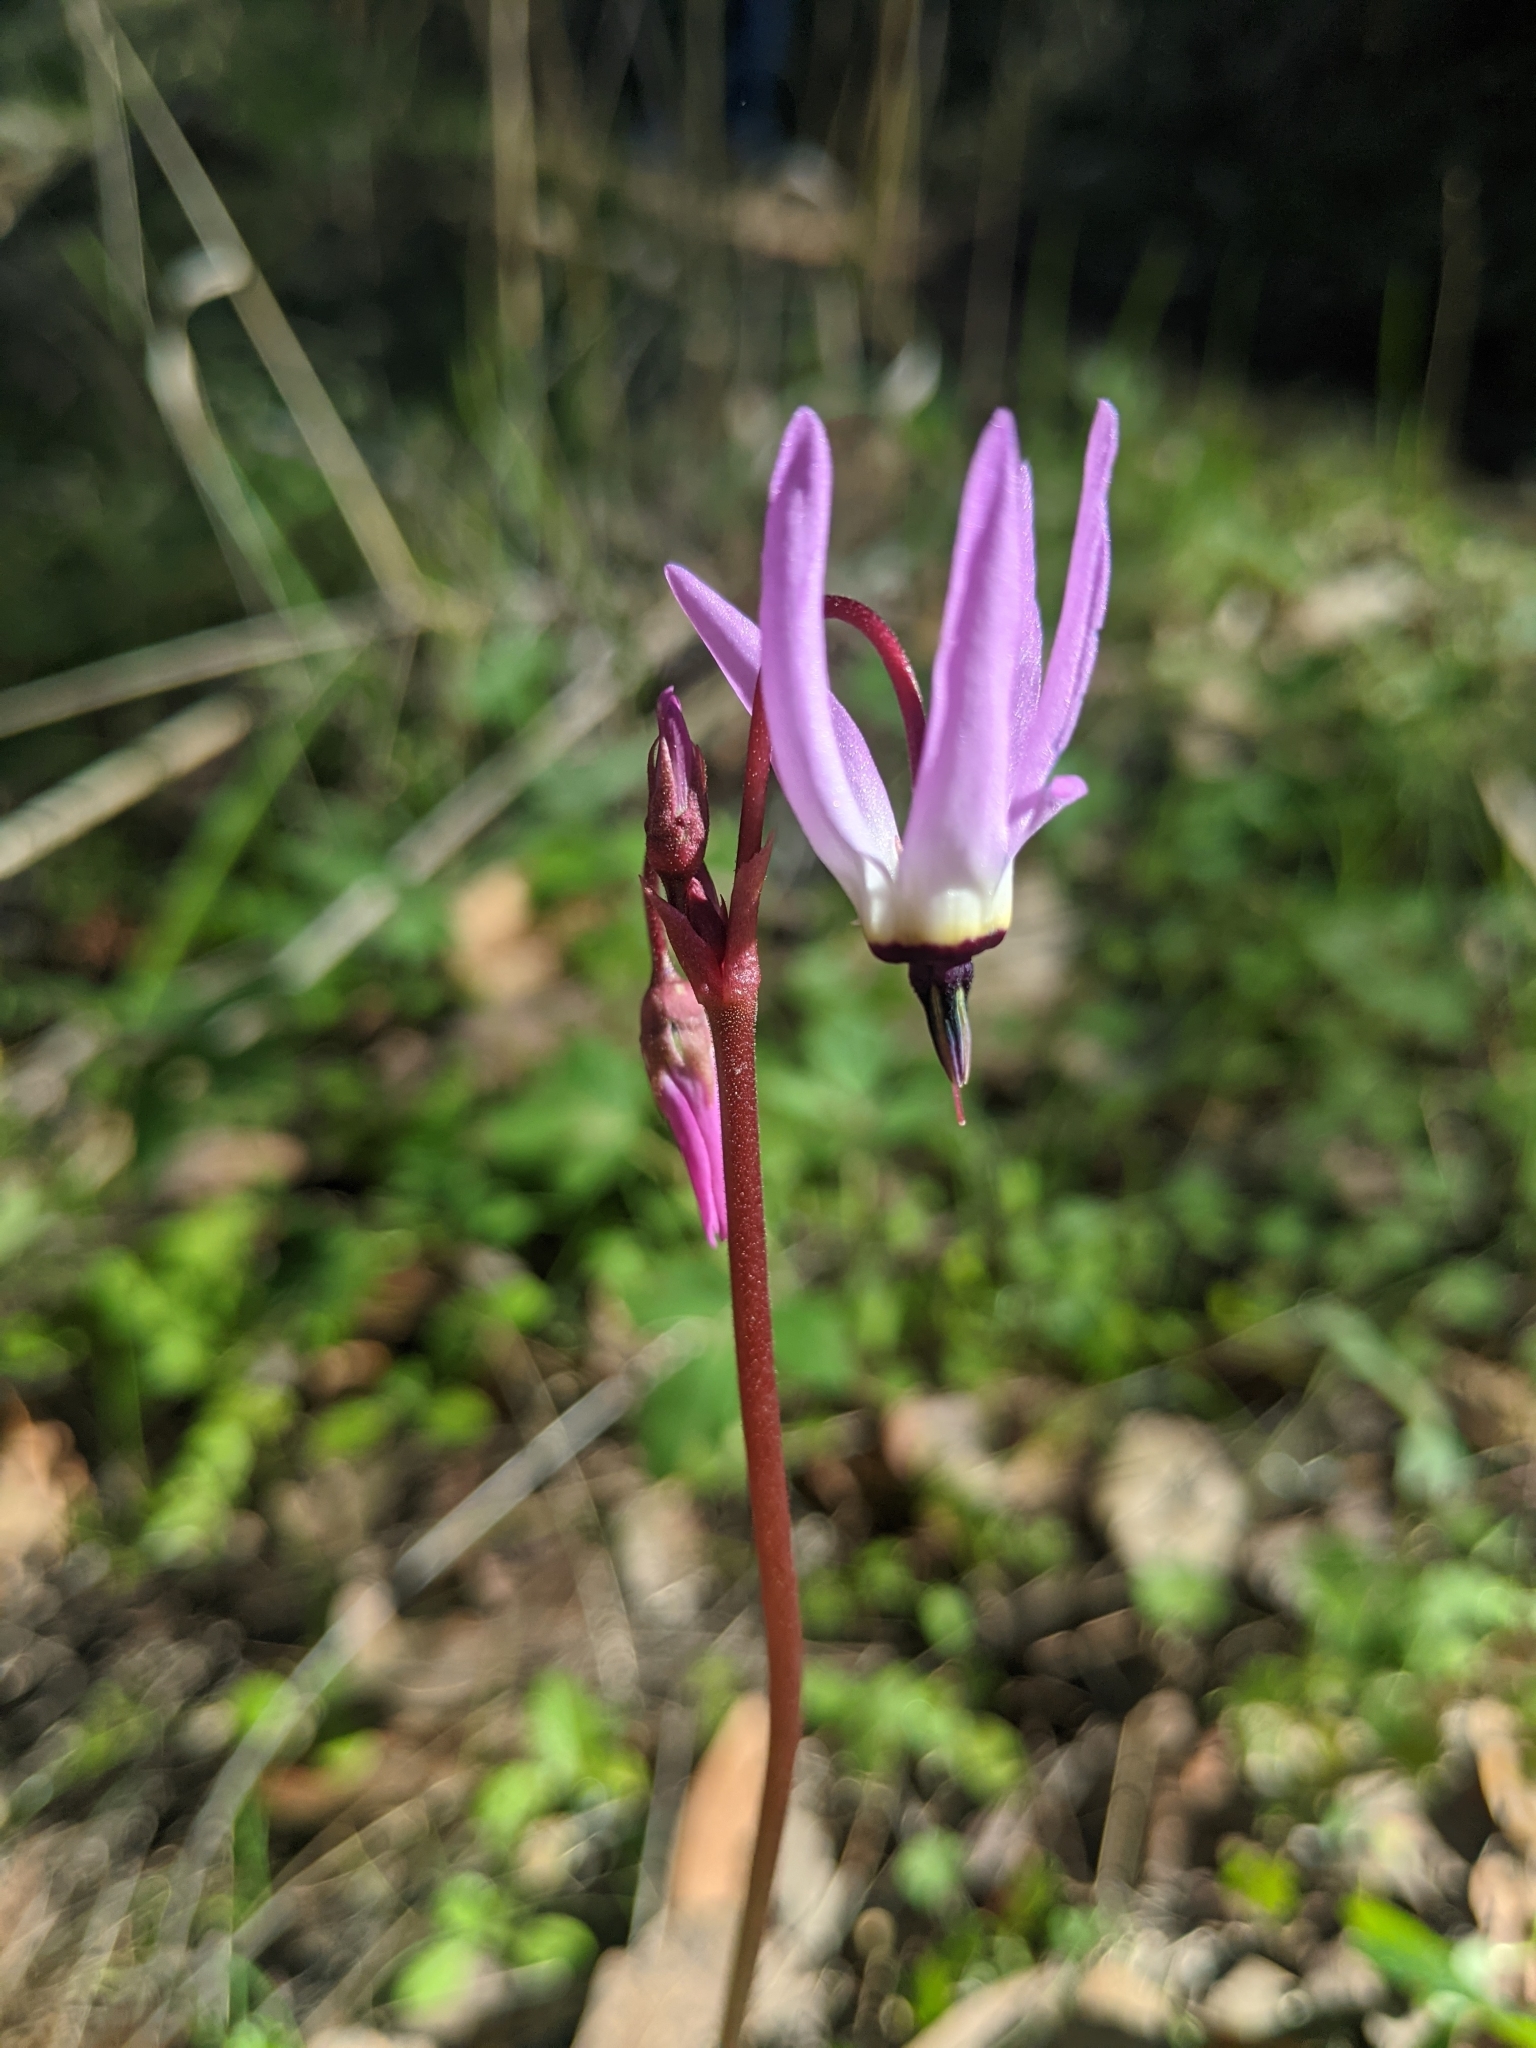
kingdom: Plantae
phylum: Tracheophyta
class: Magnoliopsida
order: Ericales
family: Primulaceae
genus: Dodecatheon
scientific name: Dodecatheon hendersonii
